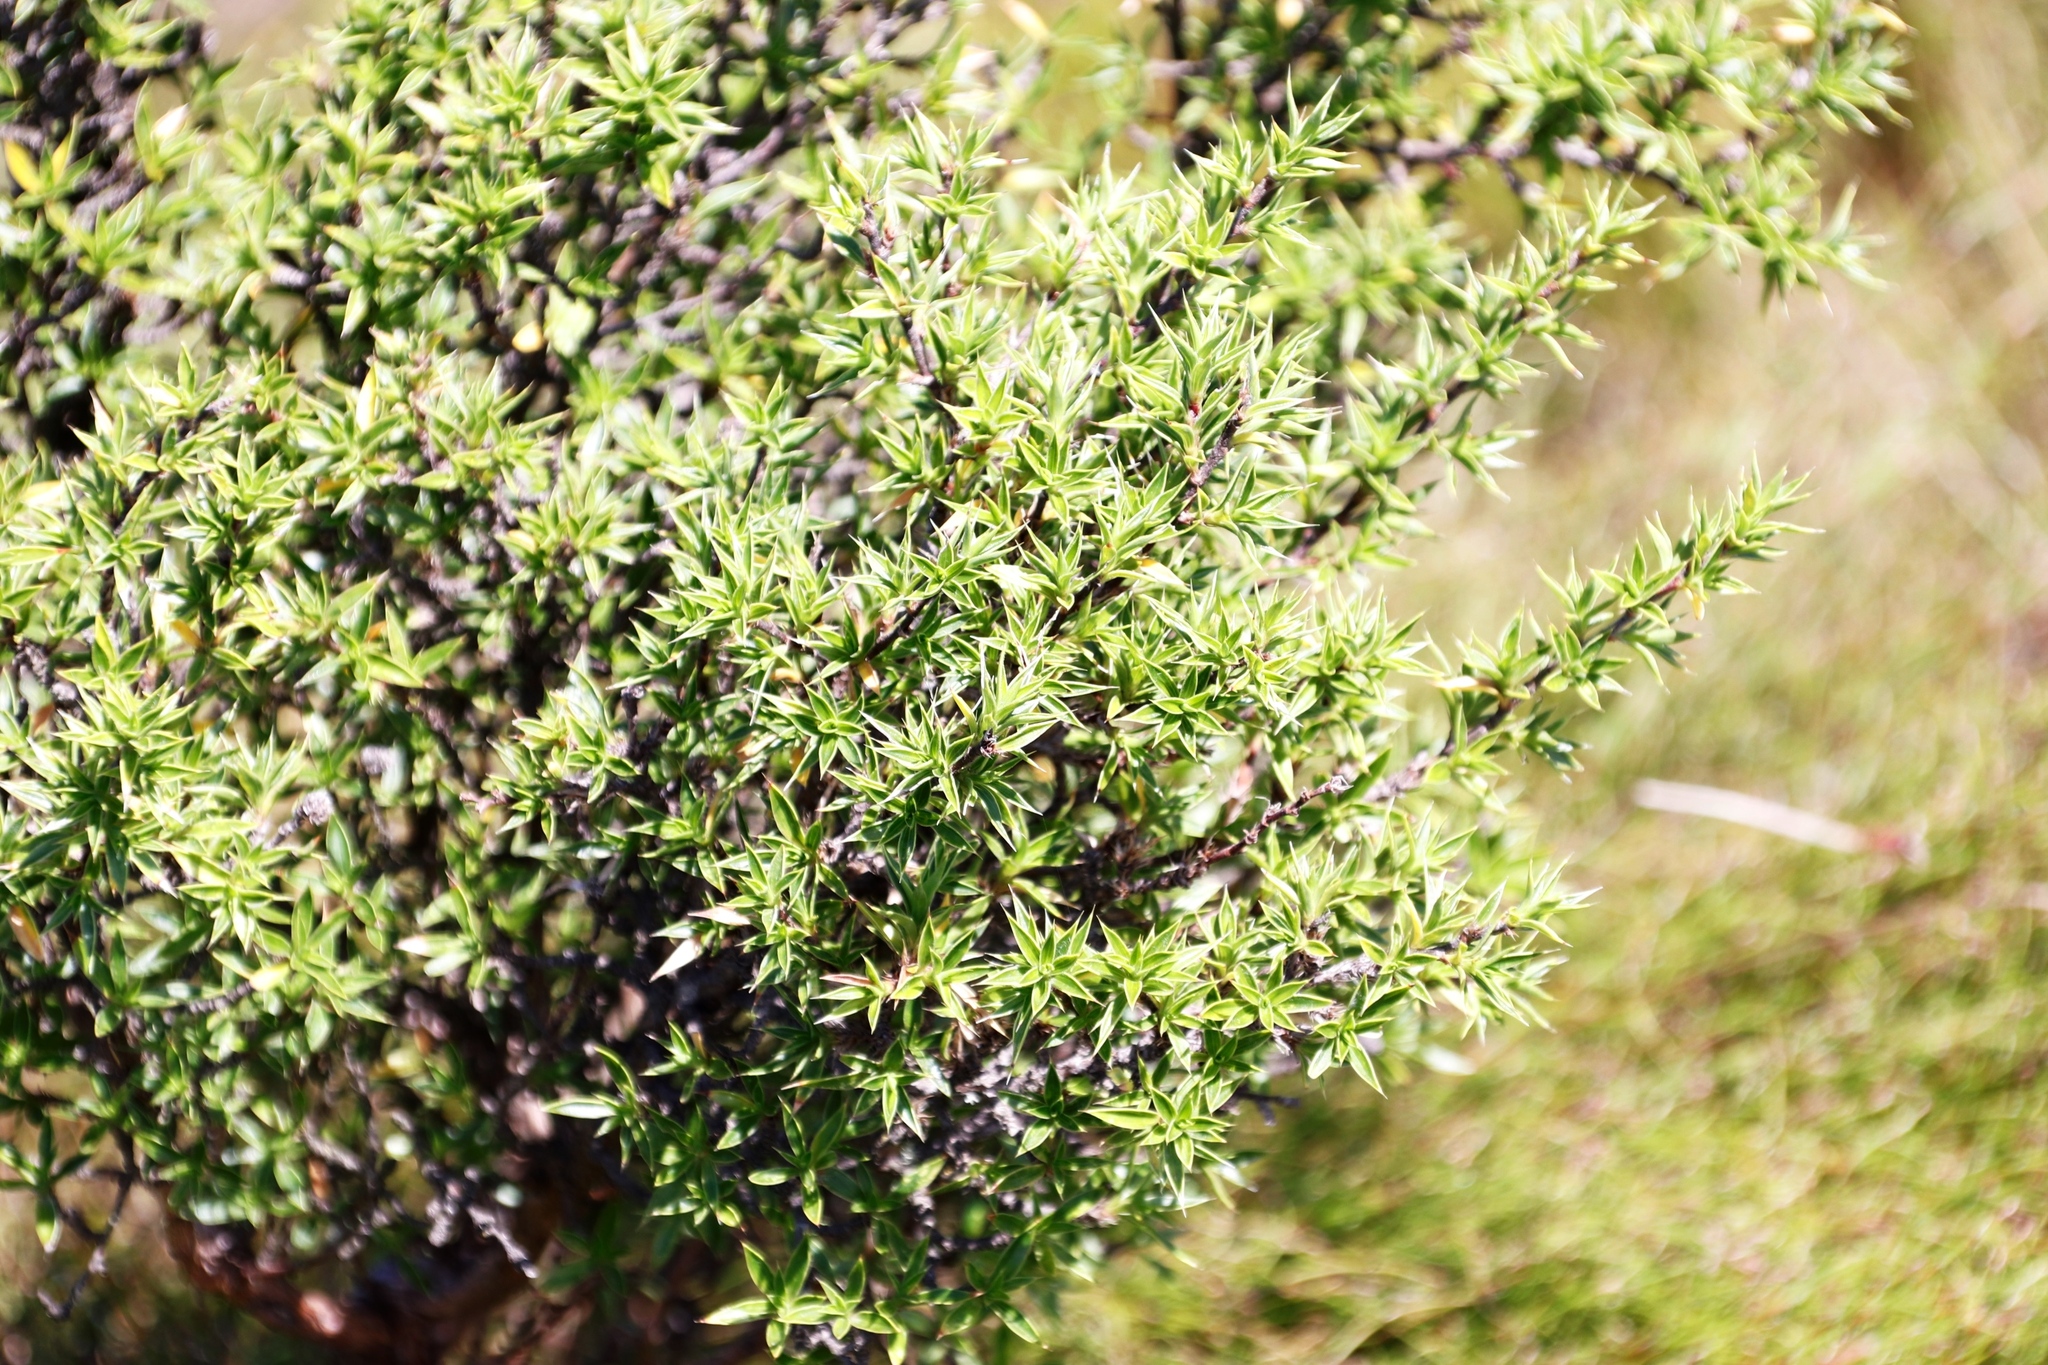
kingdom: Plantae
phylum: Tracheophyta
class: Magnoliopsida
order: Rosales
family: Rosaceae
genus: Cliffortia
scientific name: Cliffortia ruscifolia
